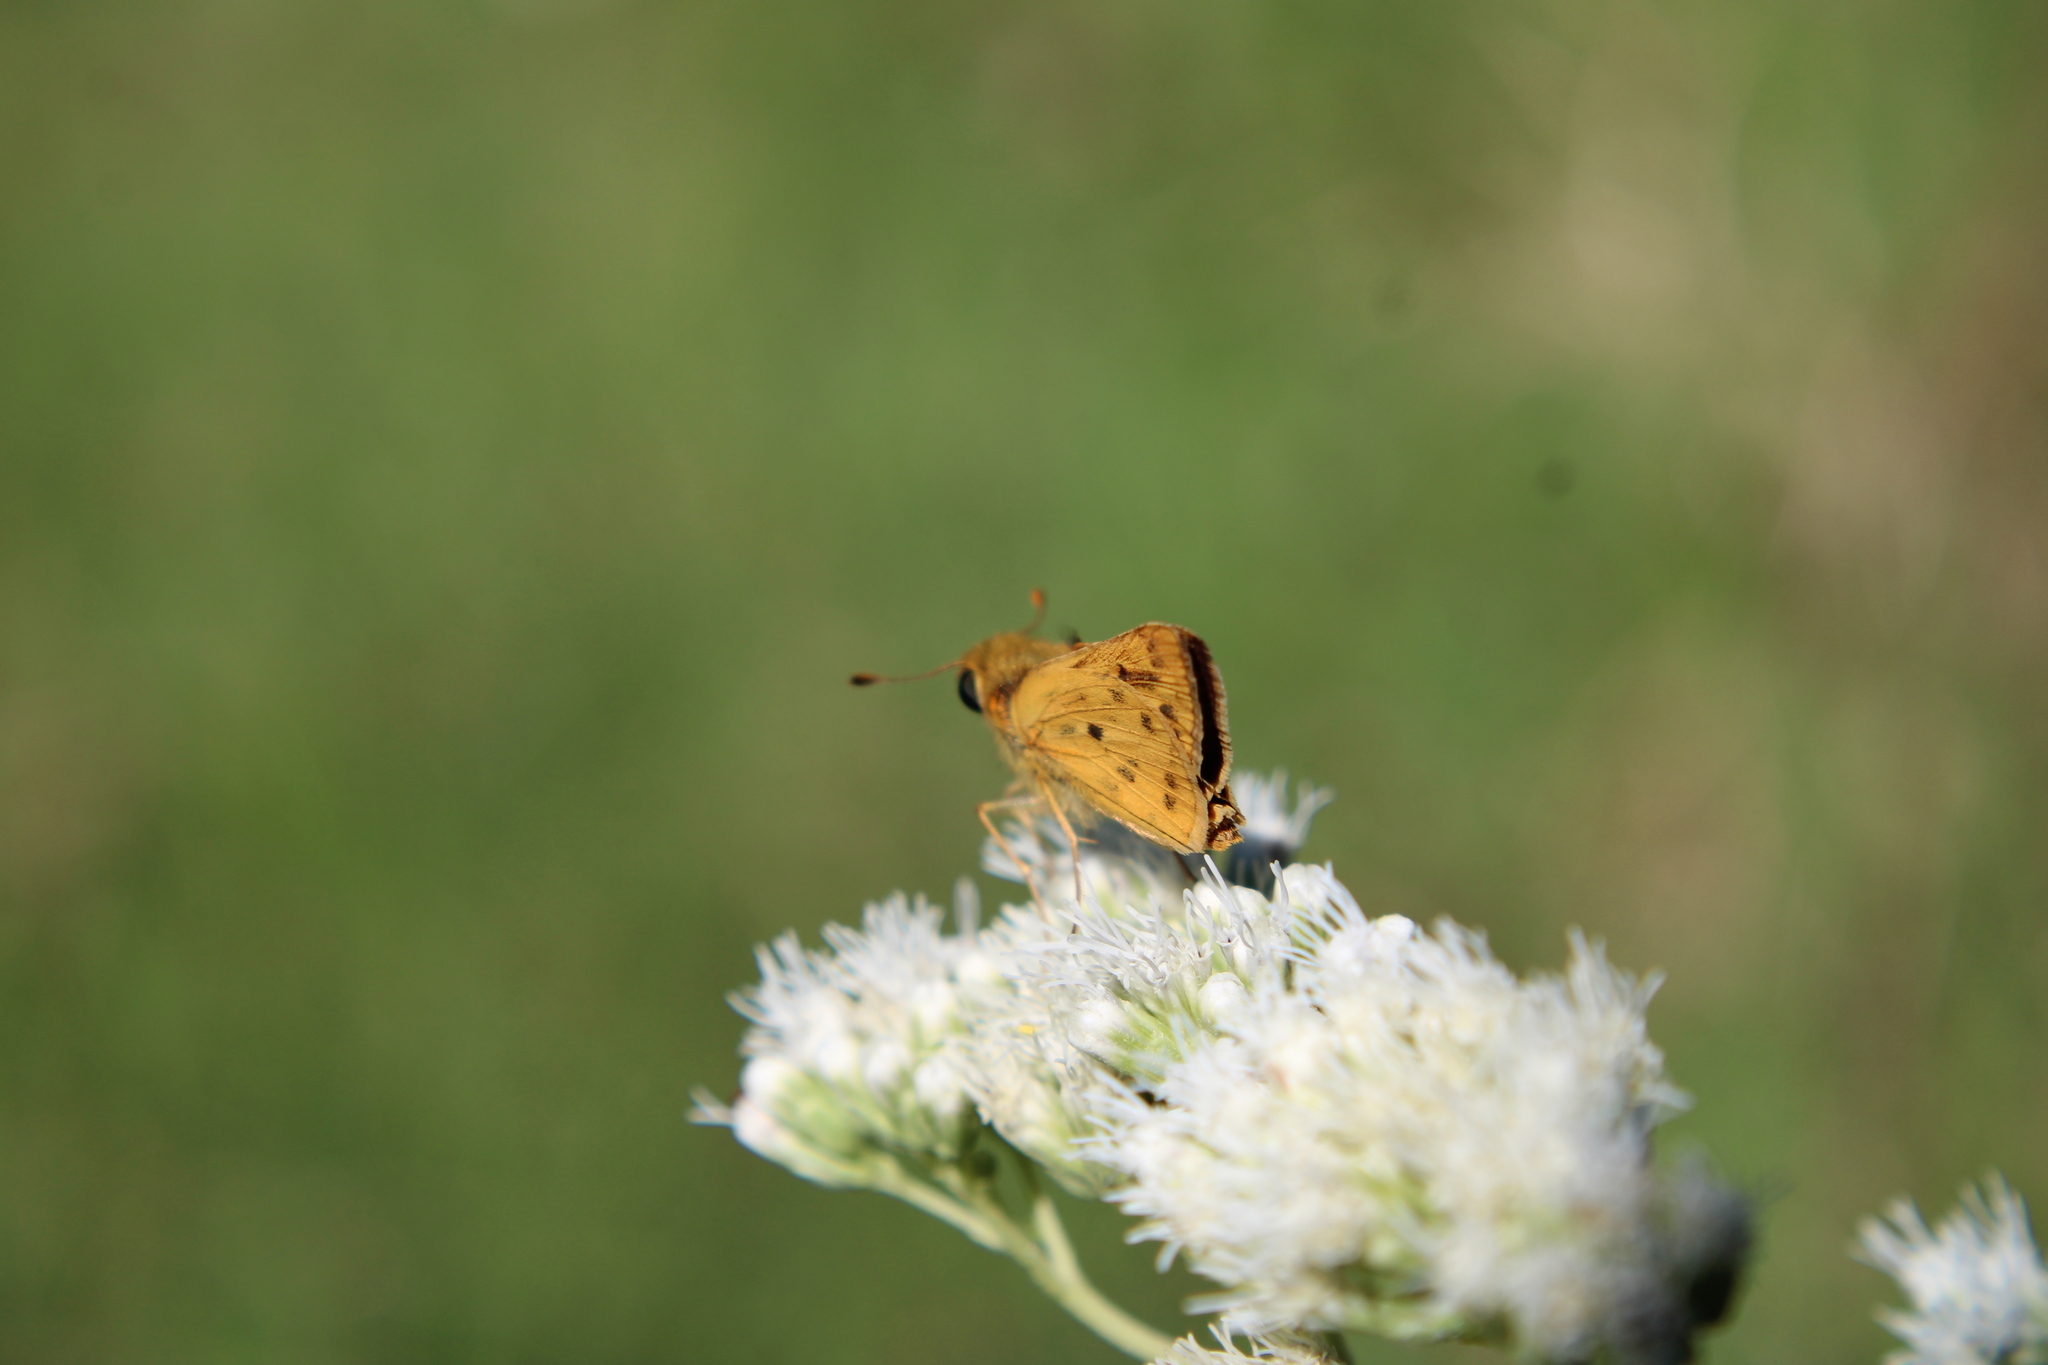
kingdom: Animalia
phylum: Arthropoda
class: Insecta
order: Lepidoptera
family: Hesperiidae
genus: Hylephila
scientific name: Hylephila phyleus
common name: Fiery skipper
